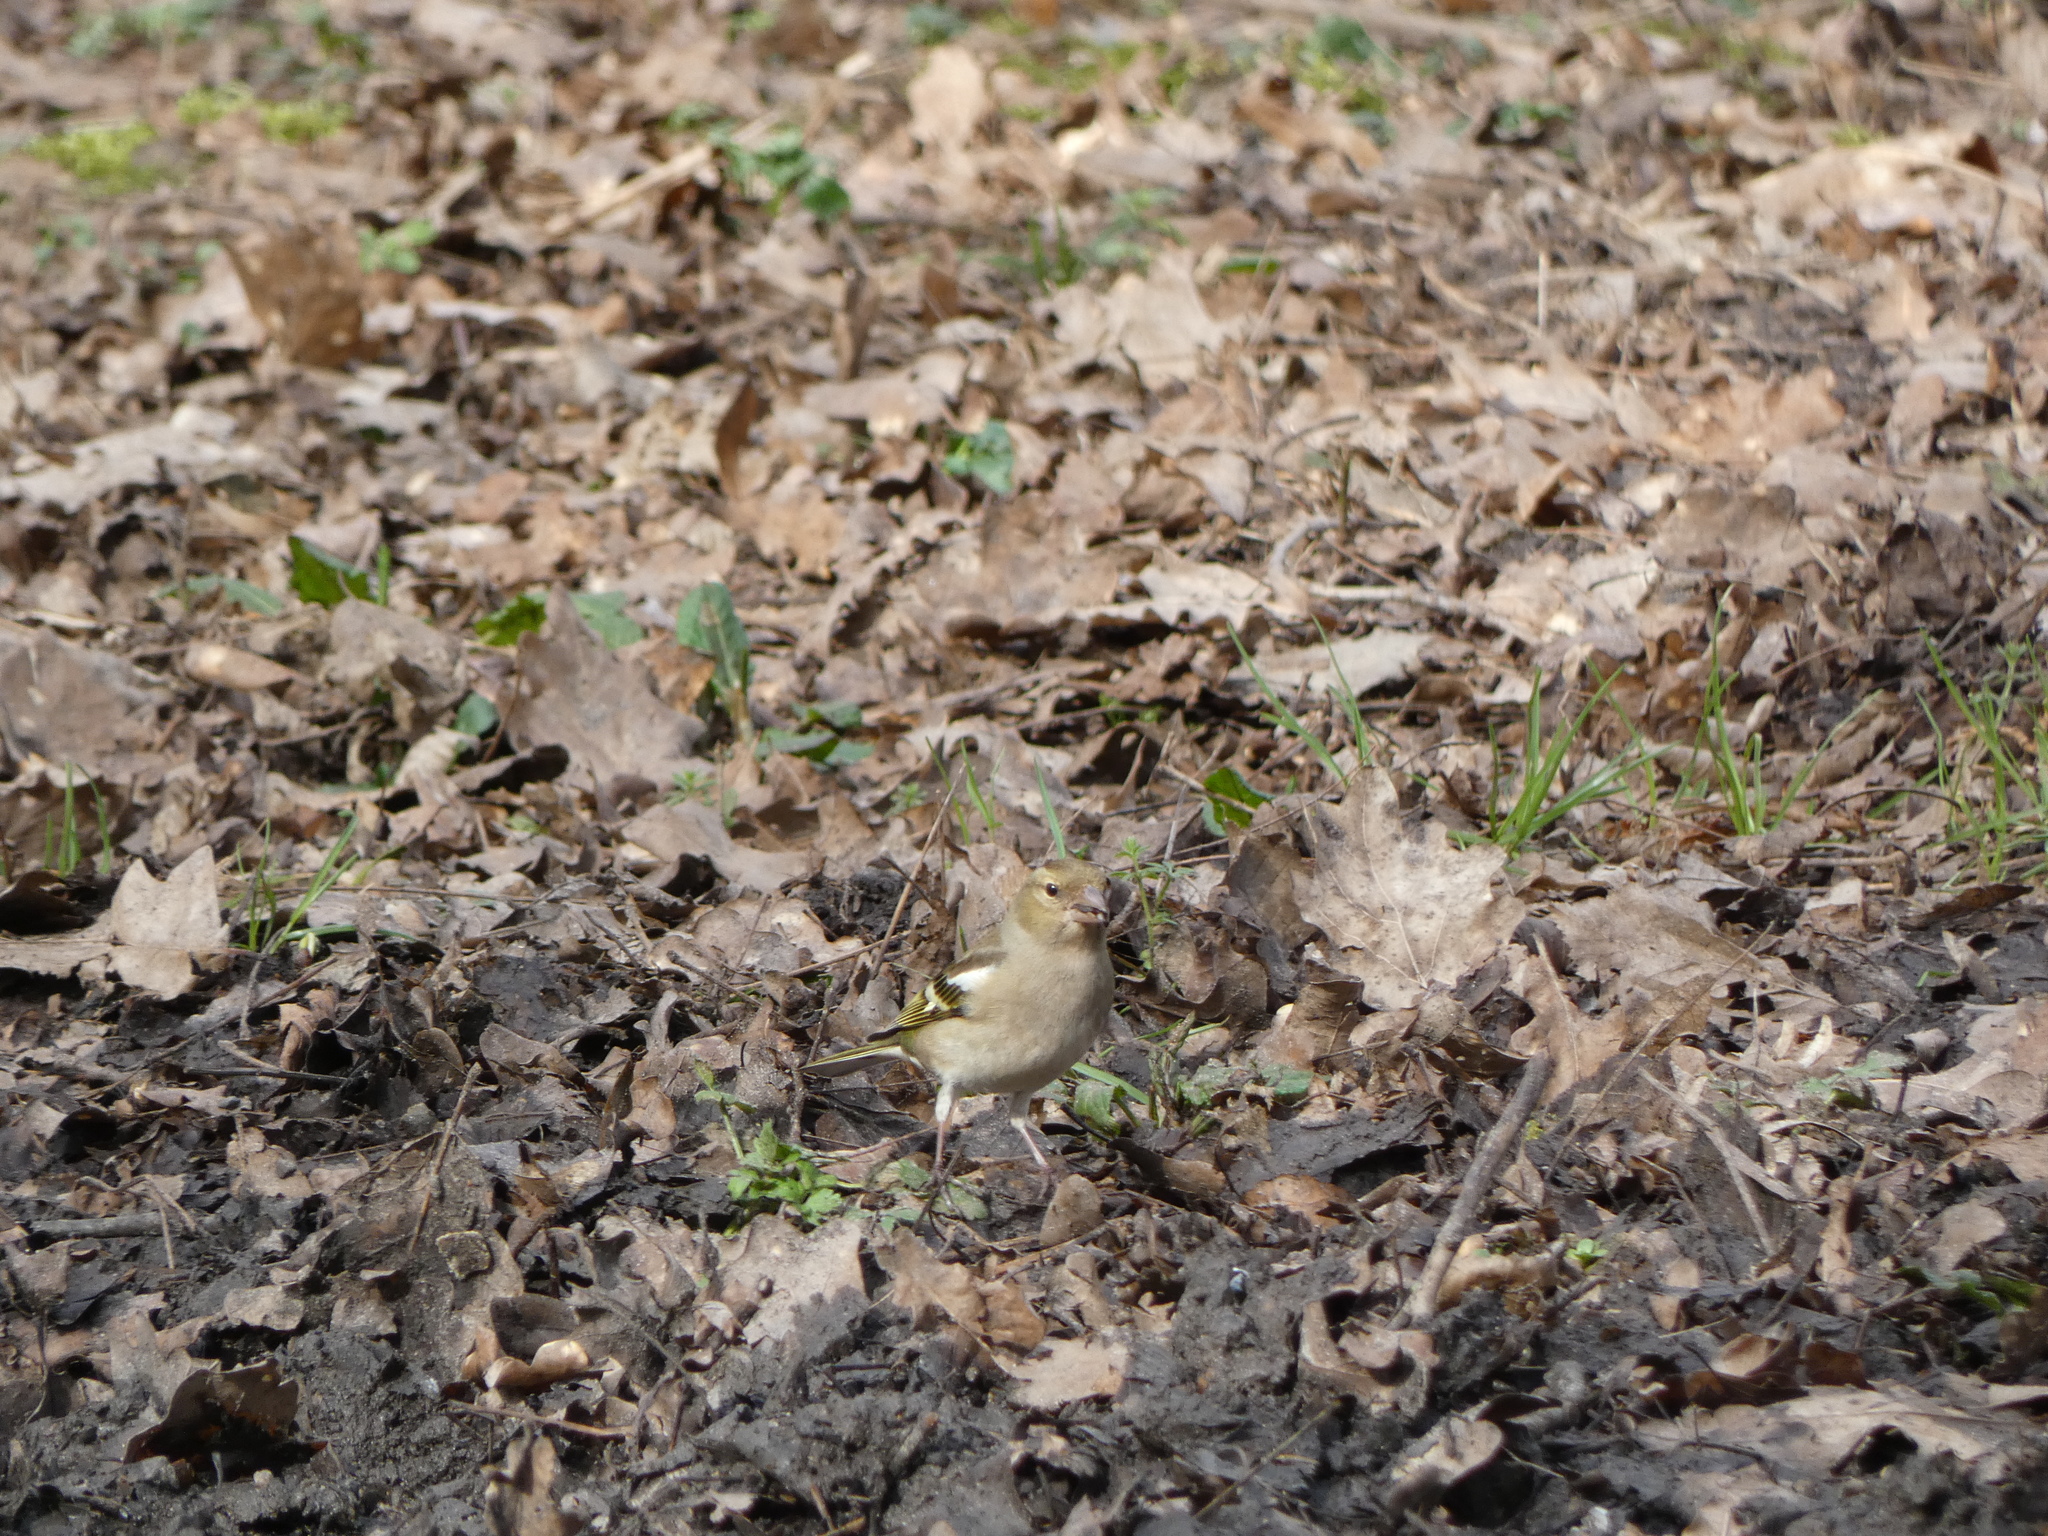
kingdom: Animalia
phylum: Chordata
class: Aves
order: Passeriformes
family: Fringillidae
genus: Fringilla
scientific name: Fringilla coelebs
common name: Common chaffinch
